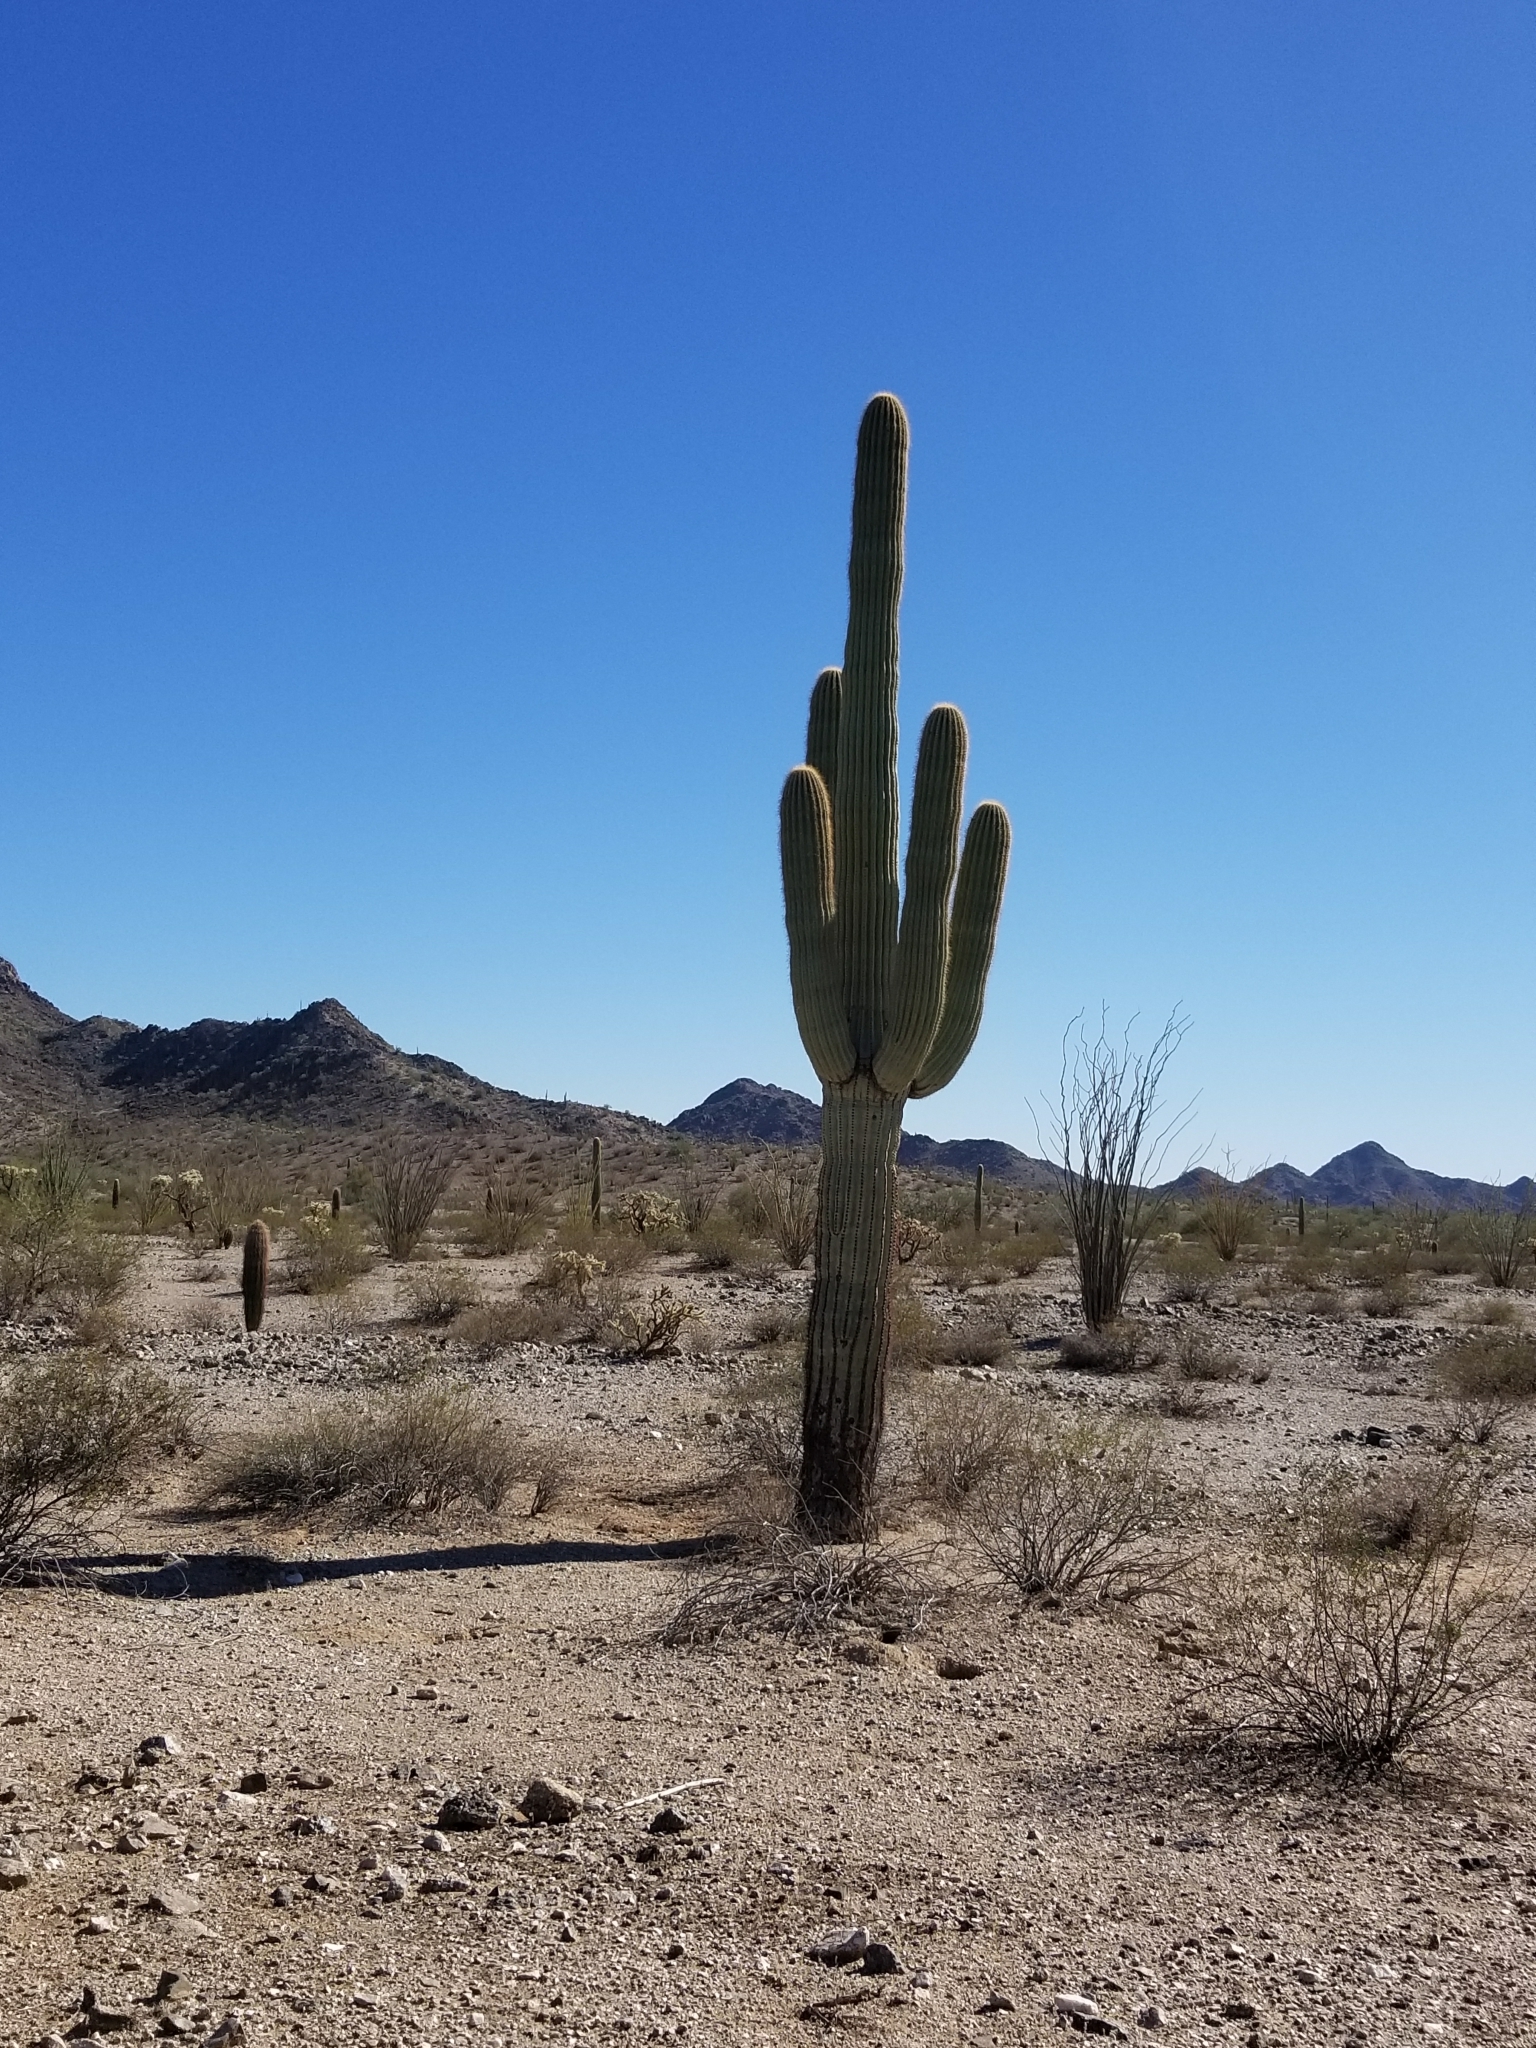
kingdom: Plantae
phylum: Tracheophyta
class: Magnoliopsida
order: Caryophyllales
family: Cactaceae
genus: Carnegiea
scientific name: Carnegiea gigantea
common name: Saguaro
